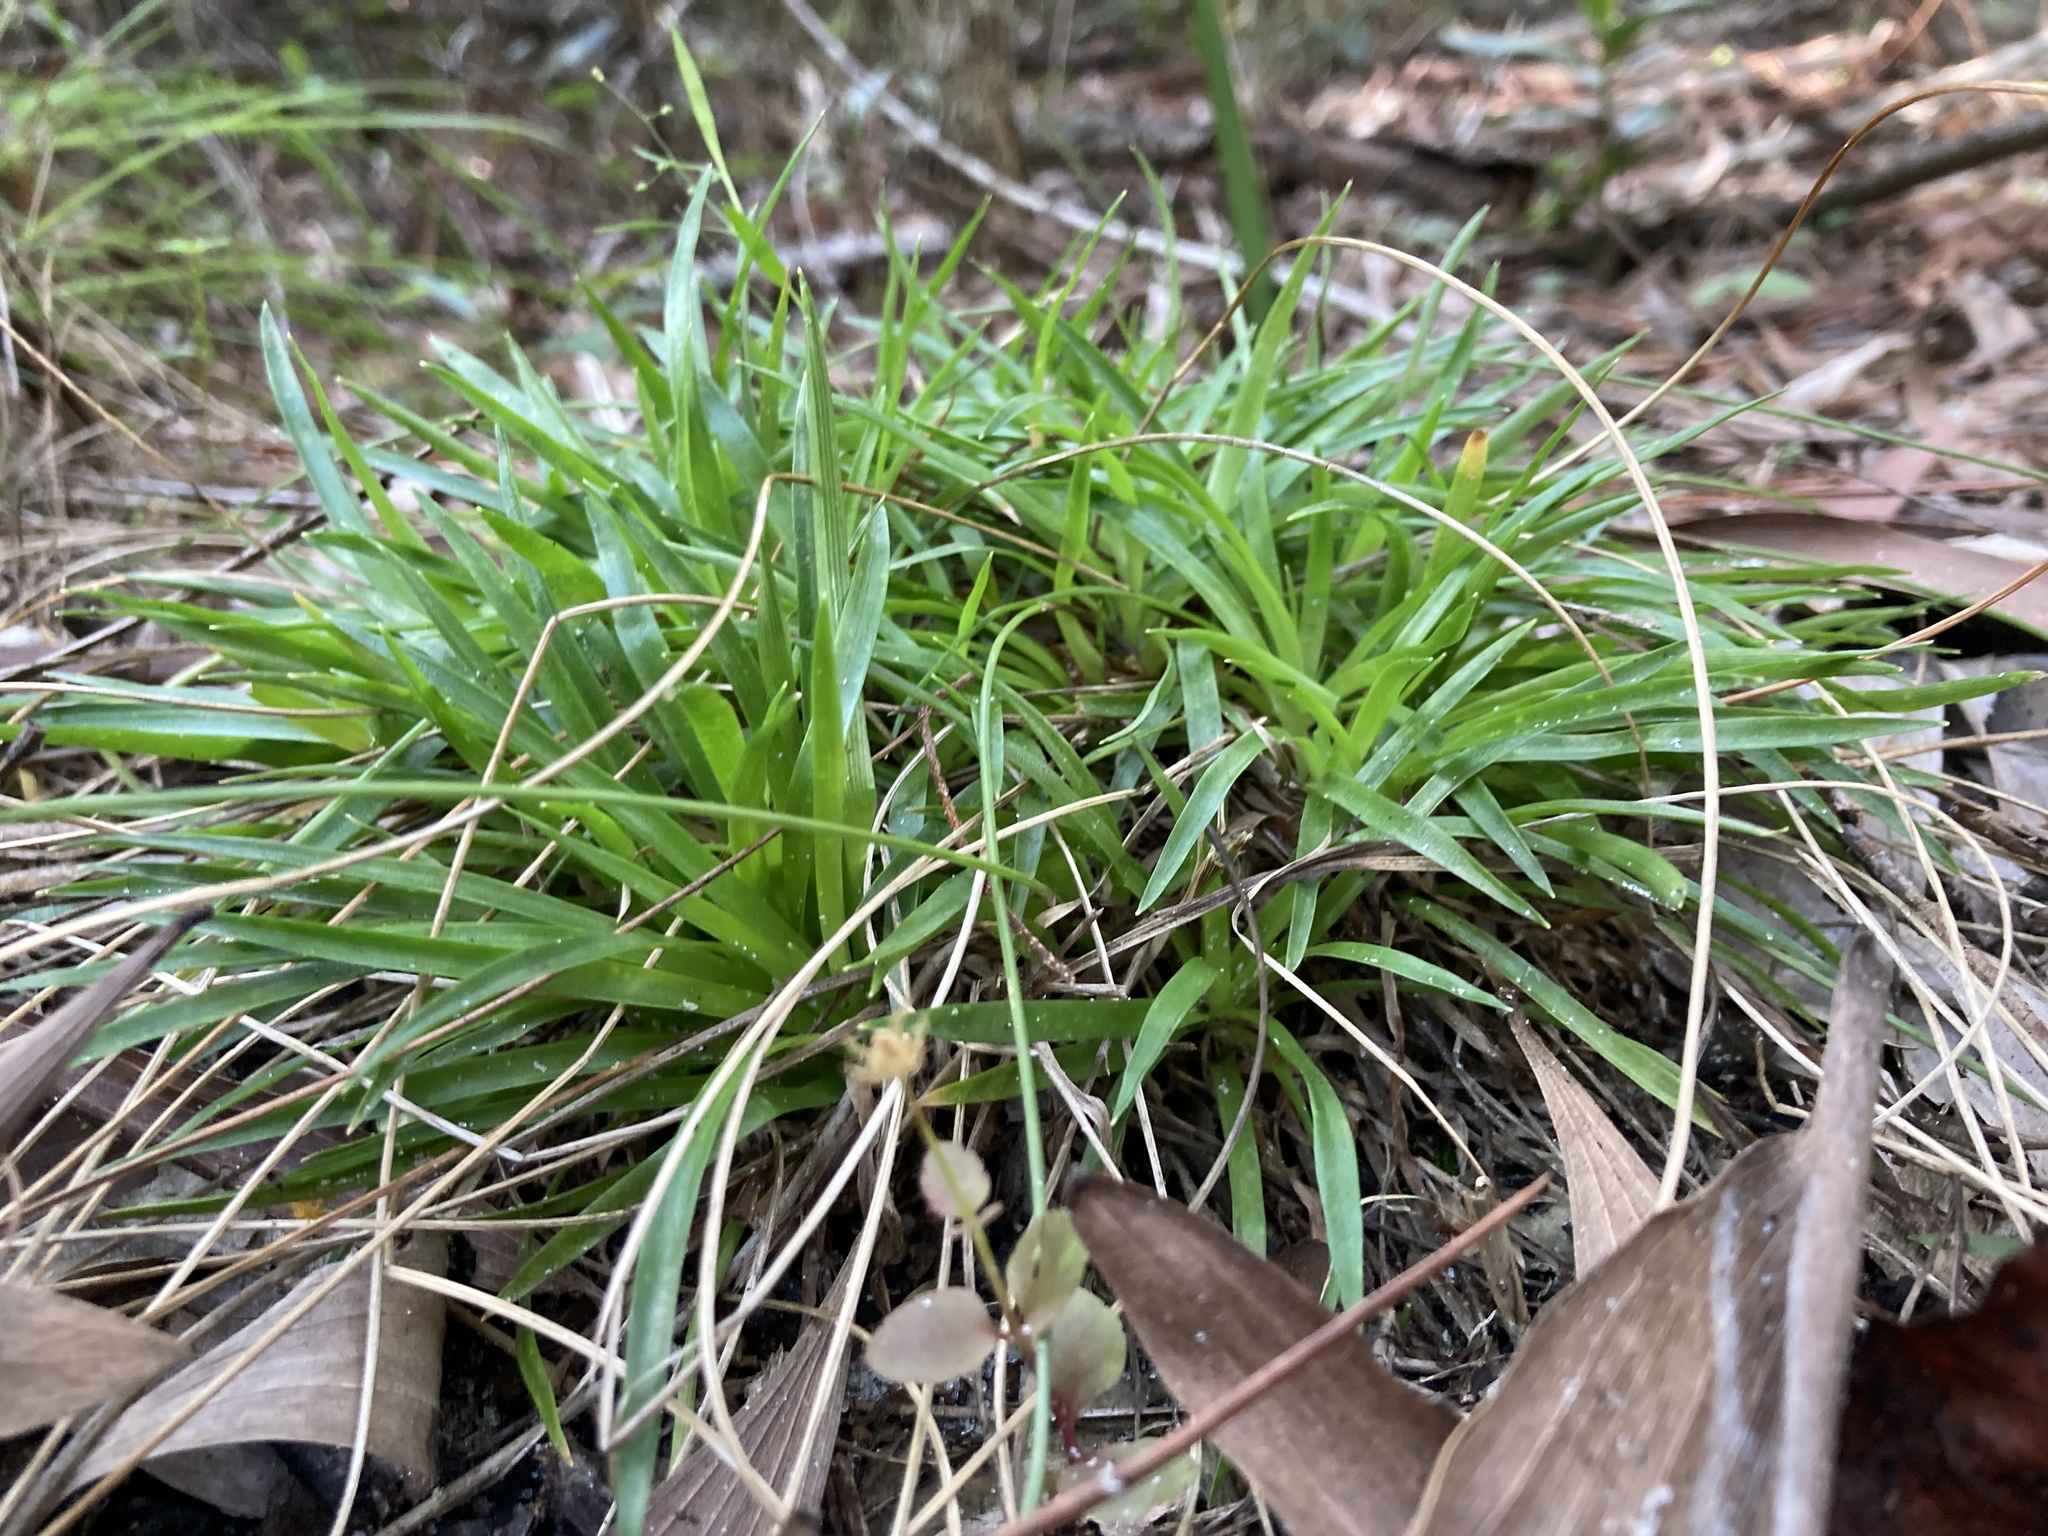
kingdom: Plantae
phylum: Tracheophyta
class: Liliopsida
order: Poales
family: Eriocaulaceae
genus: Paepalanthus
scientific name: Paepalanthus anceps
